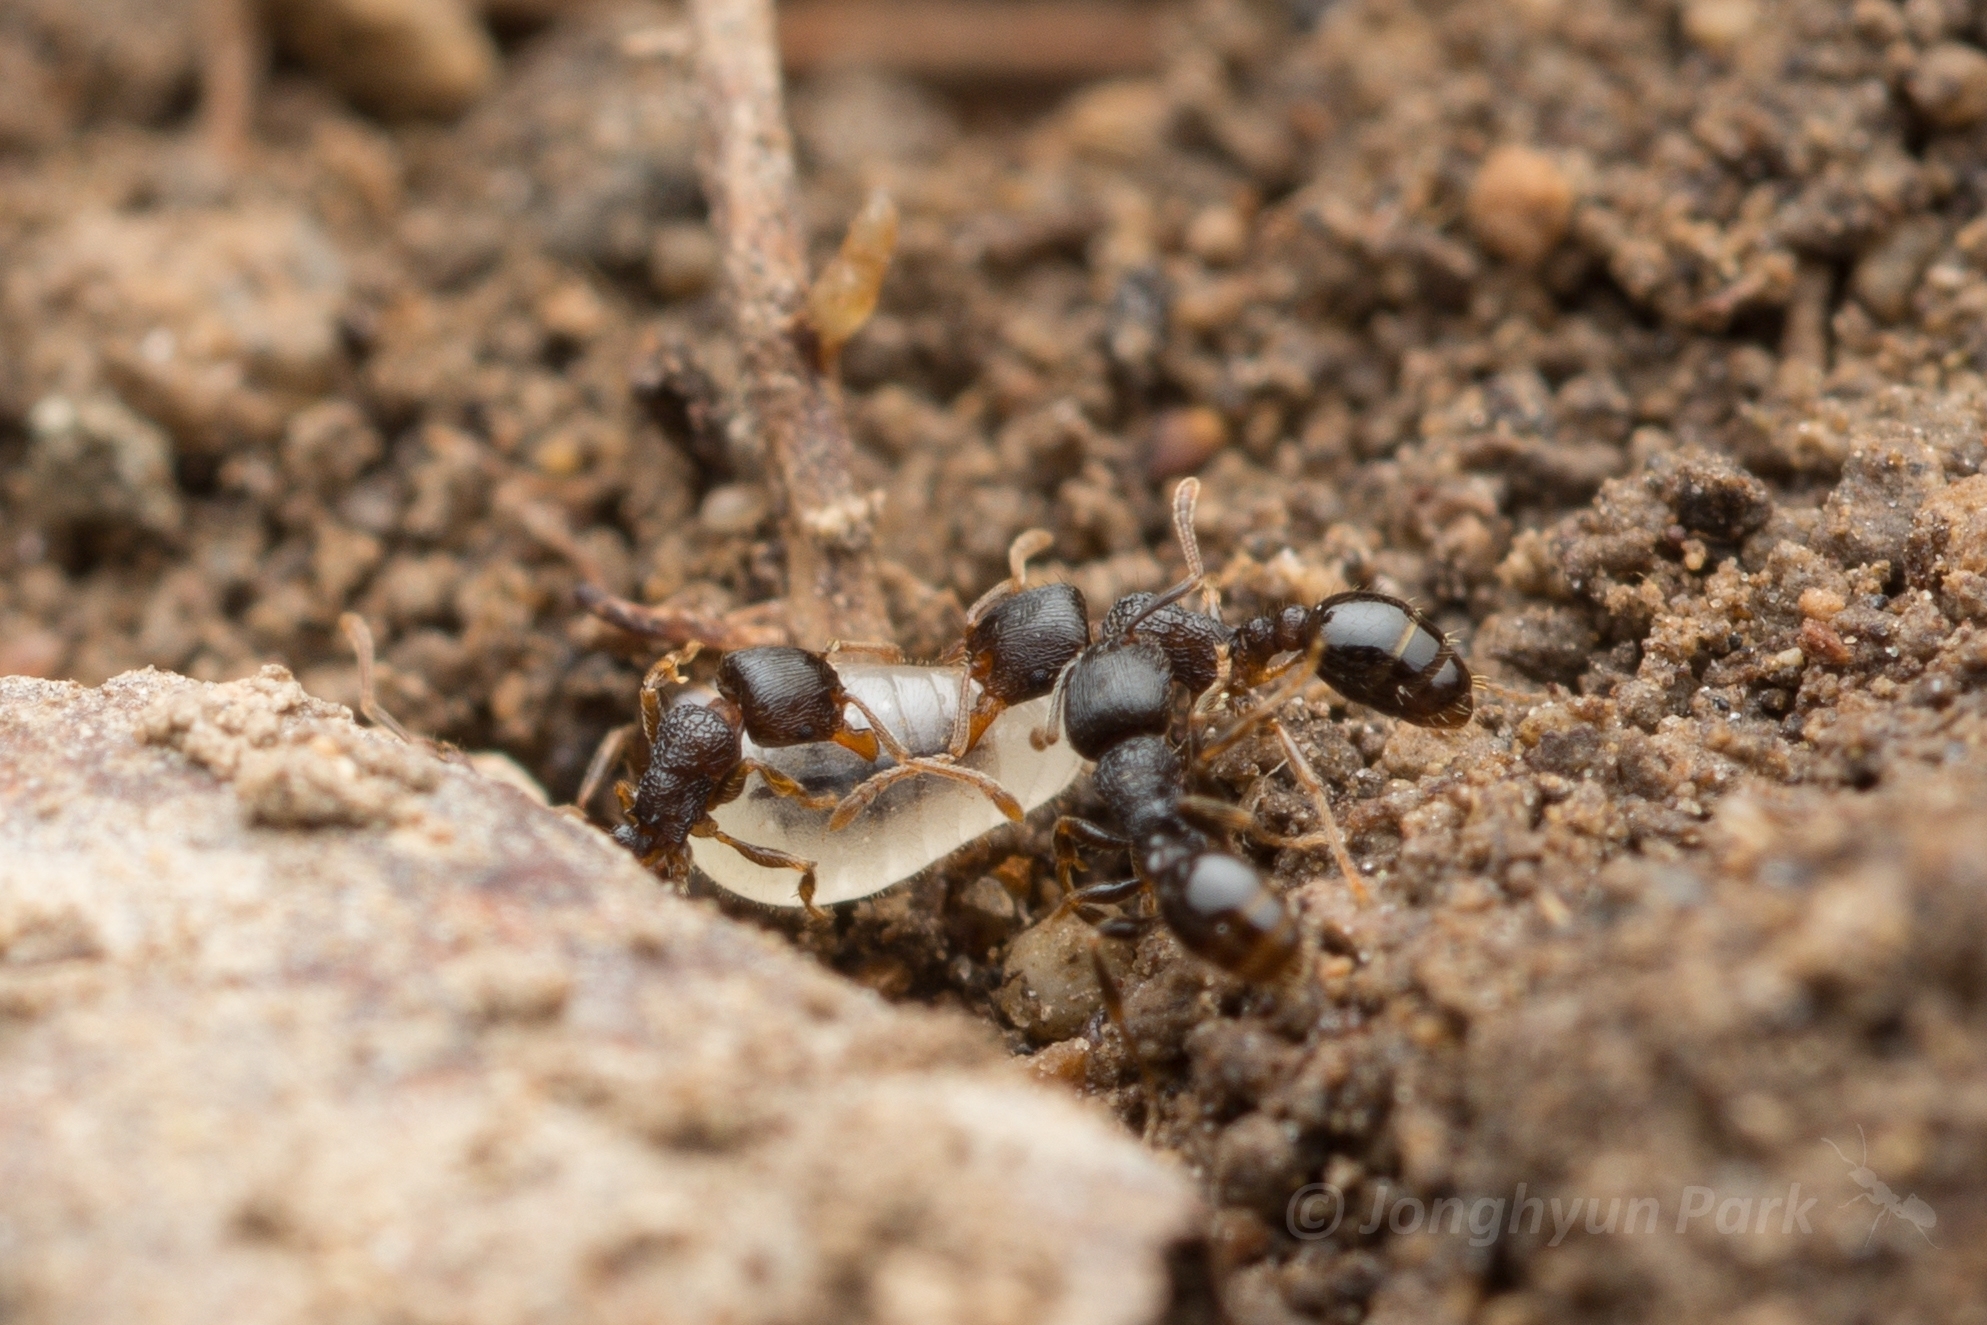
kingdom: Animalia
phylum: Arthropoda
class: Insecta
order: Hymenoptera
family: Formicidae
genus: Tetramorium
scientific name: Tetramorium tsushimae
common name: Ant
